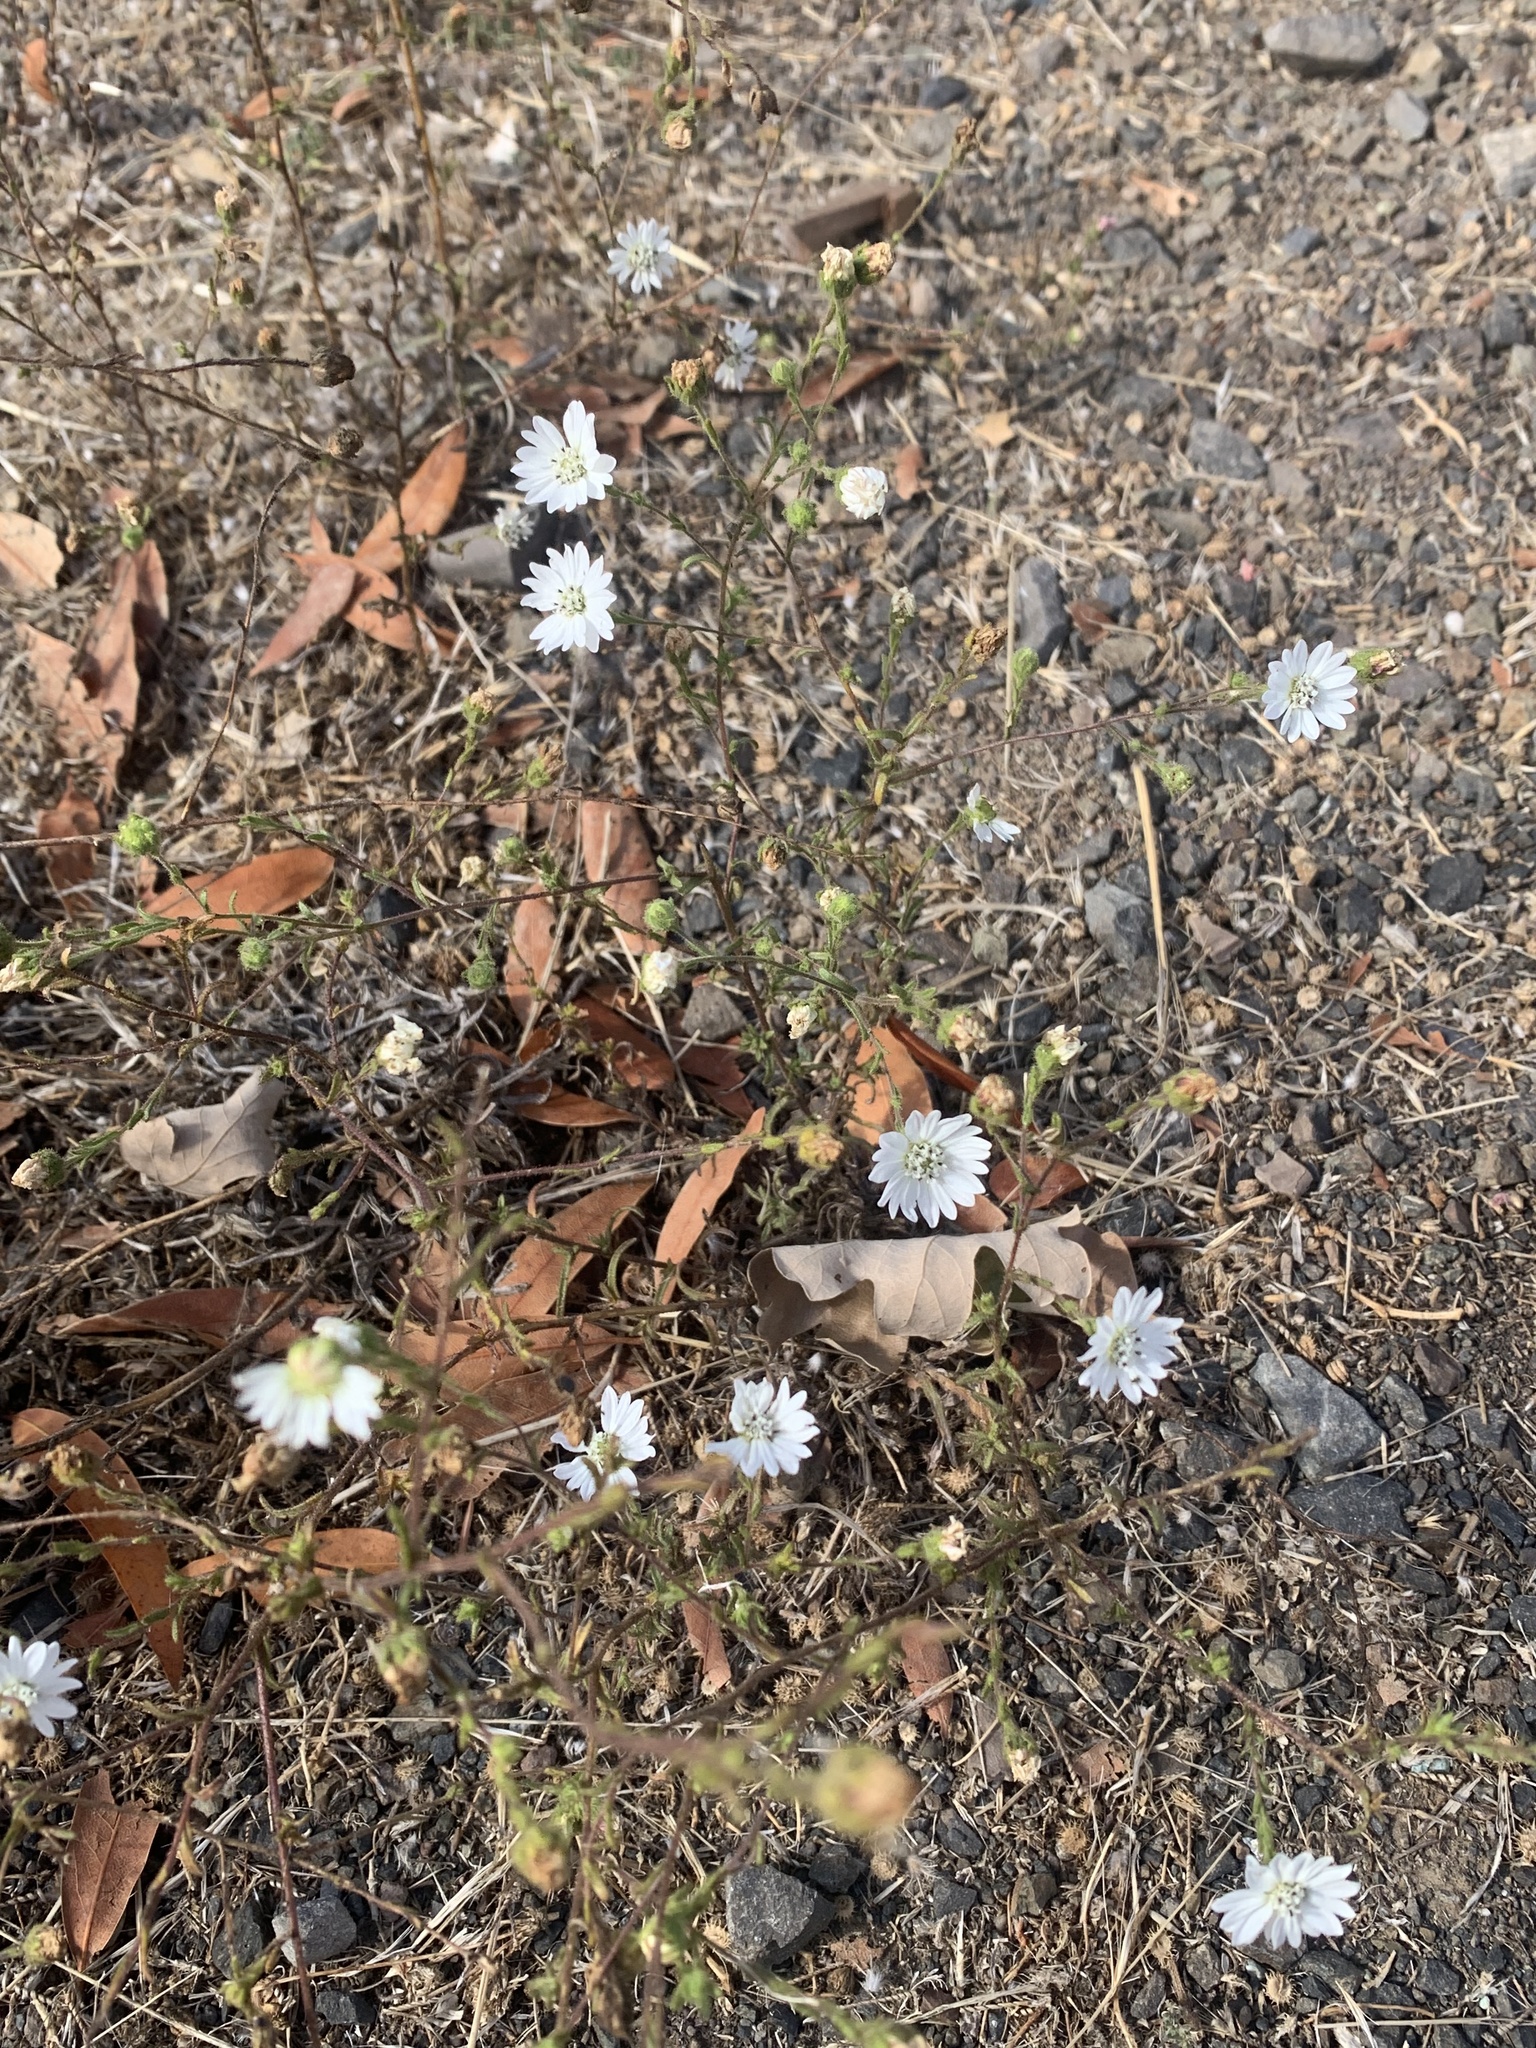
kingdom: Plantae
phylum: Tracheophyta
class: Magnoliopsida
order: Asterales
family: Asteraceae
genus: Hemizonia
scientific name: Hemizonia congesta
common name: Hayfield tarweed
